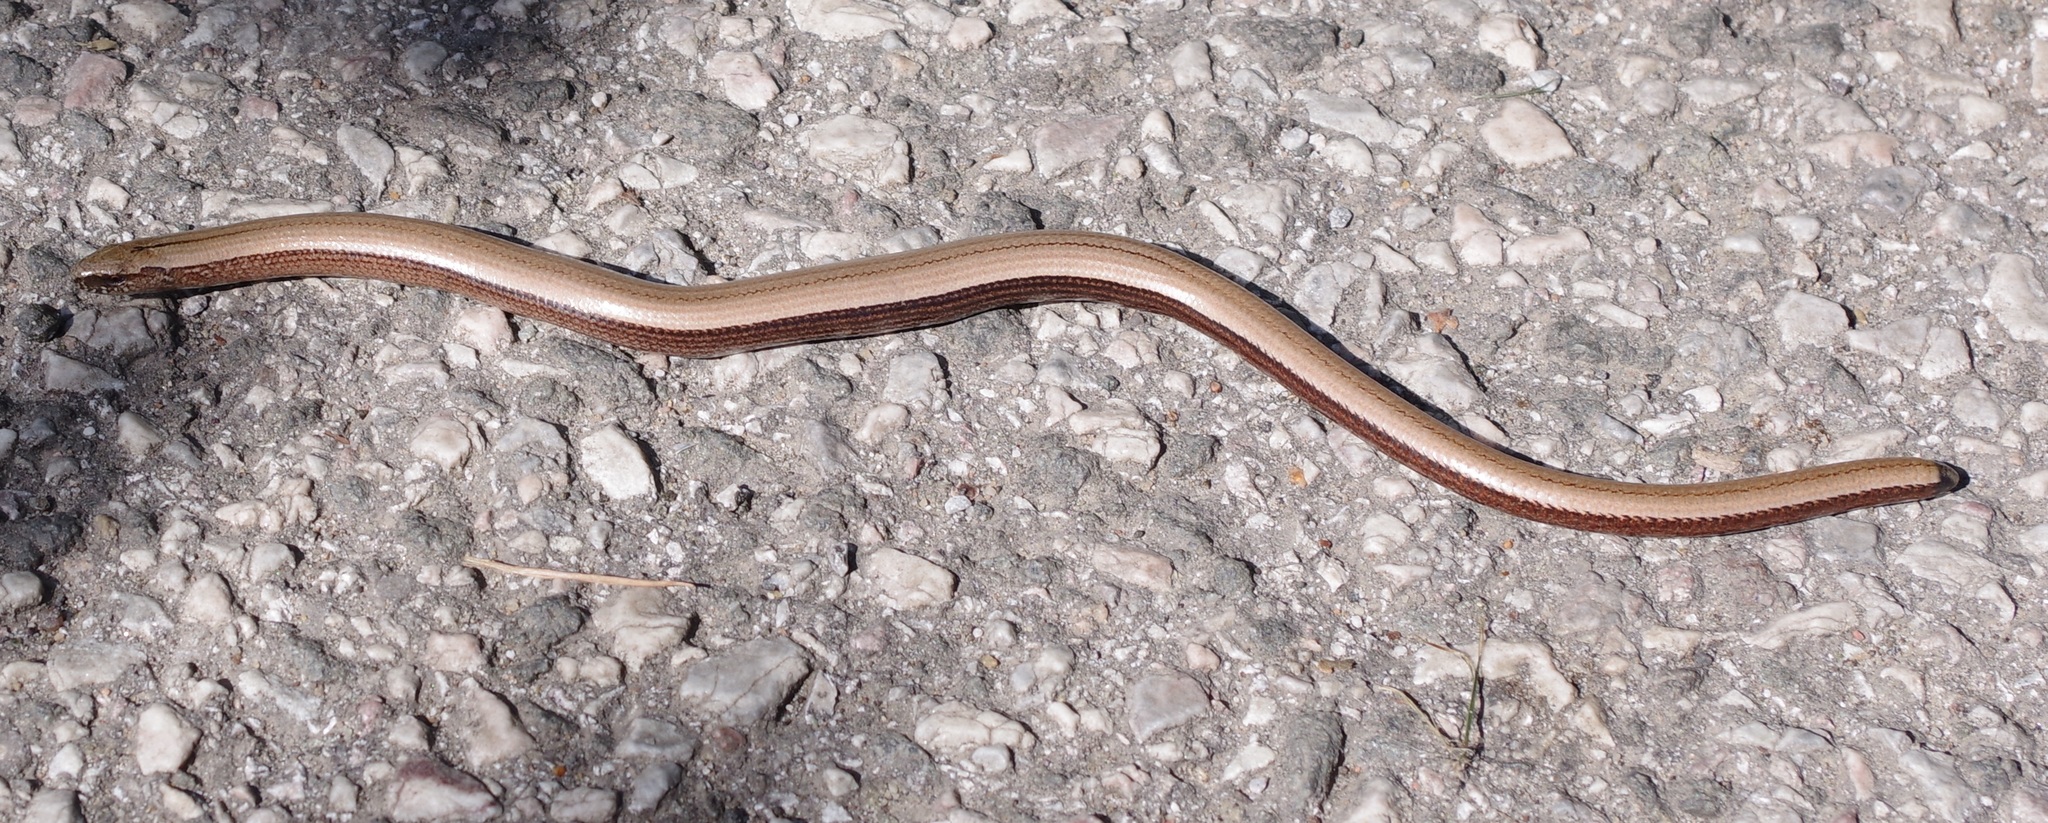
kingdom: Animalia
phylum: Chordata
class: Squamata
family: Anguidae
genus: Anguis
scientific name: Anguis fragilis
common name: Slow worm
